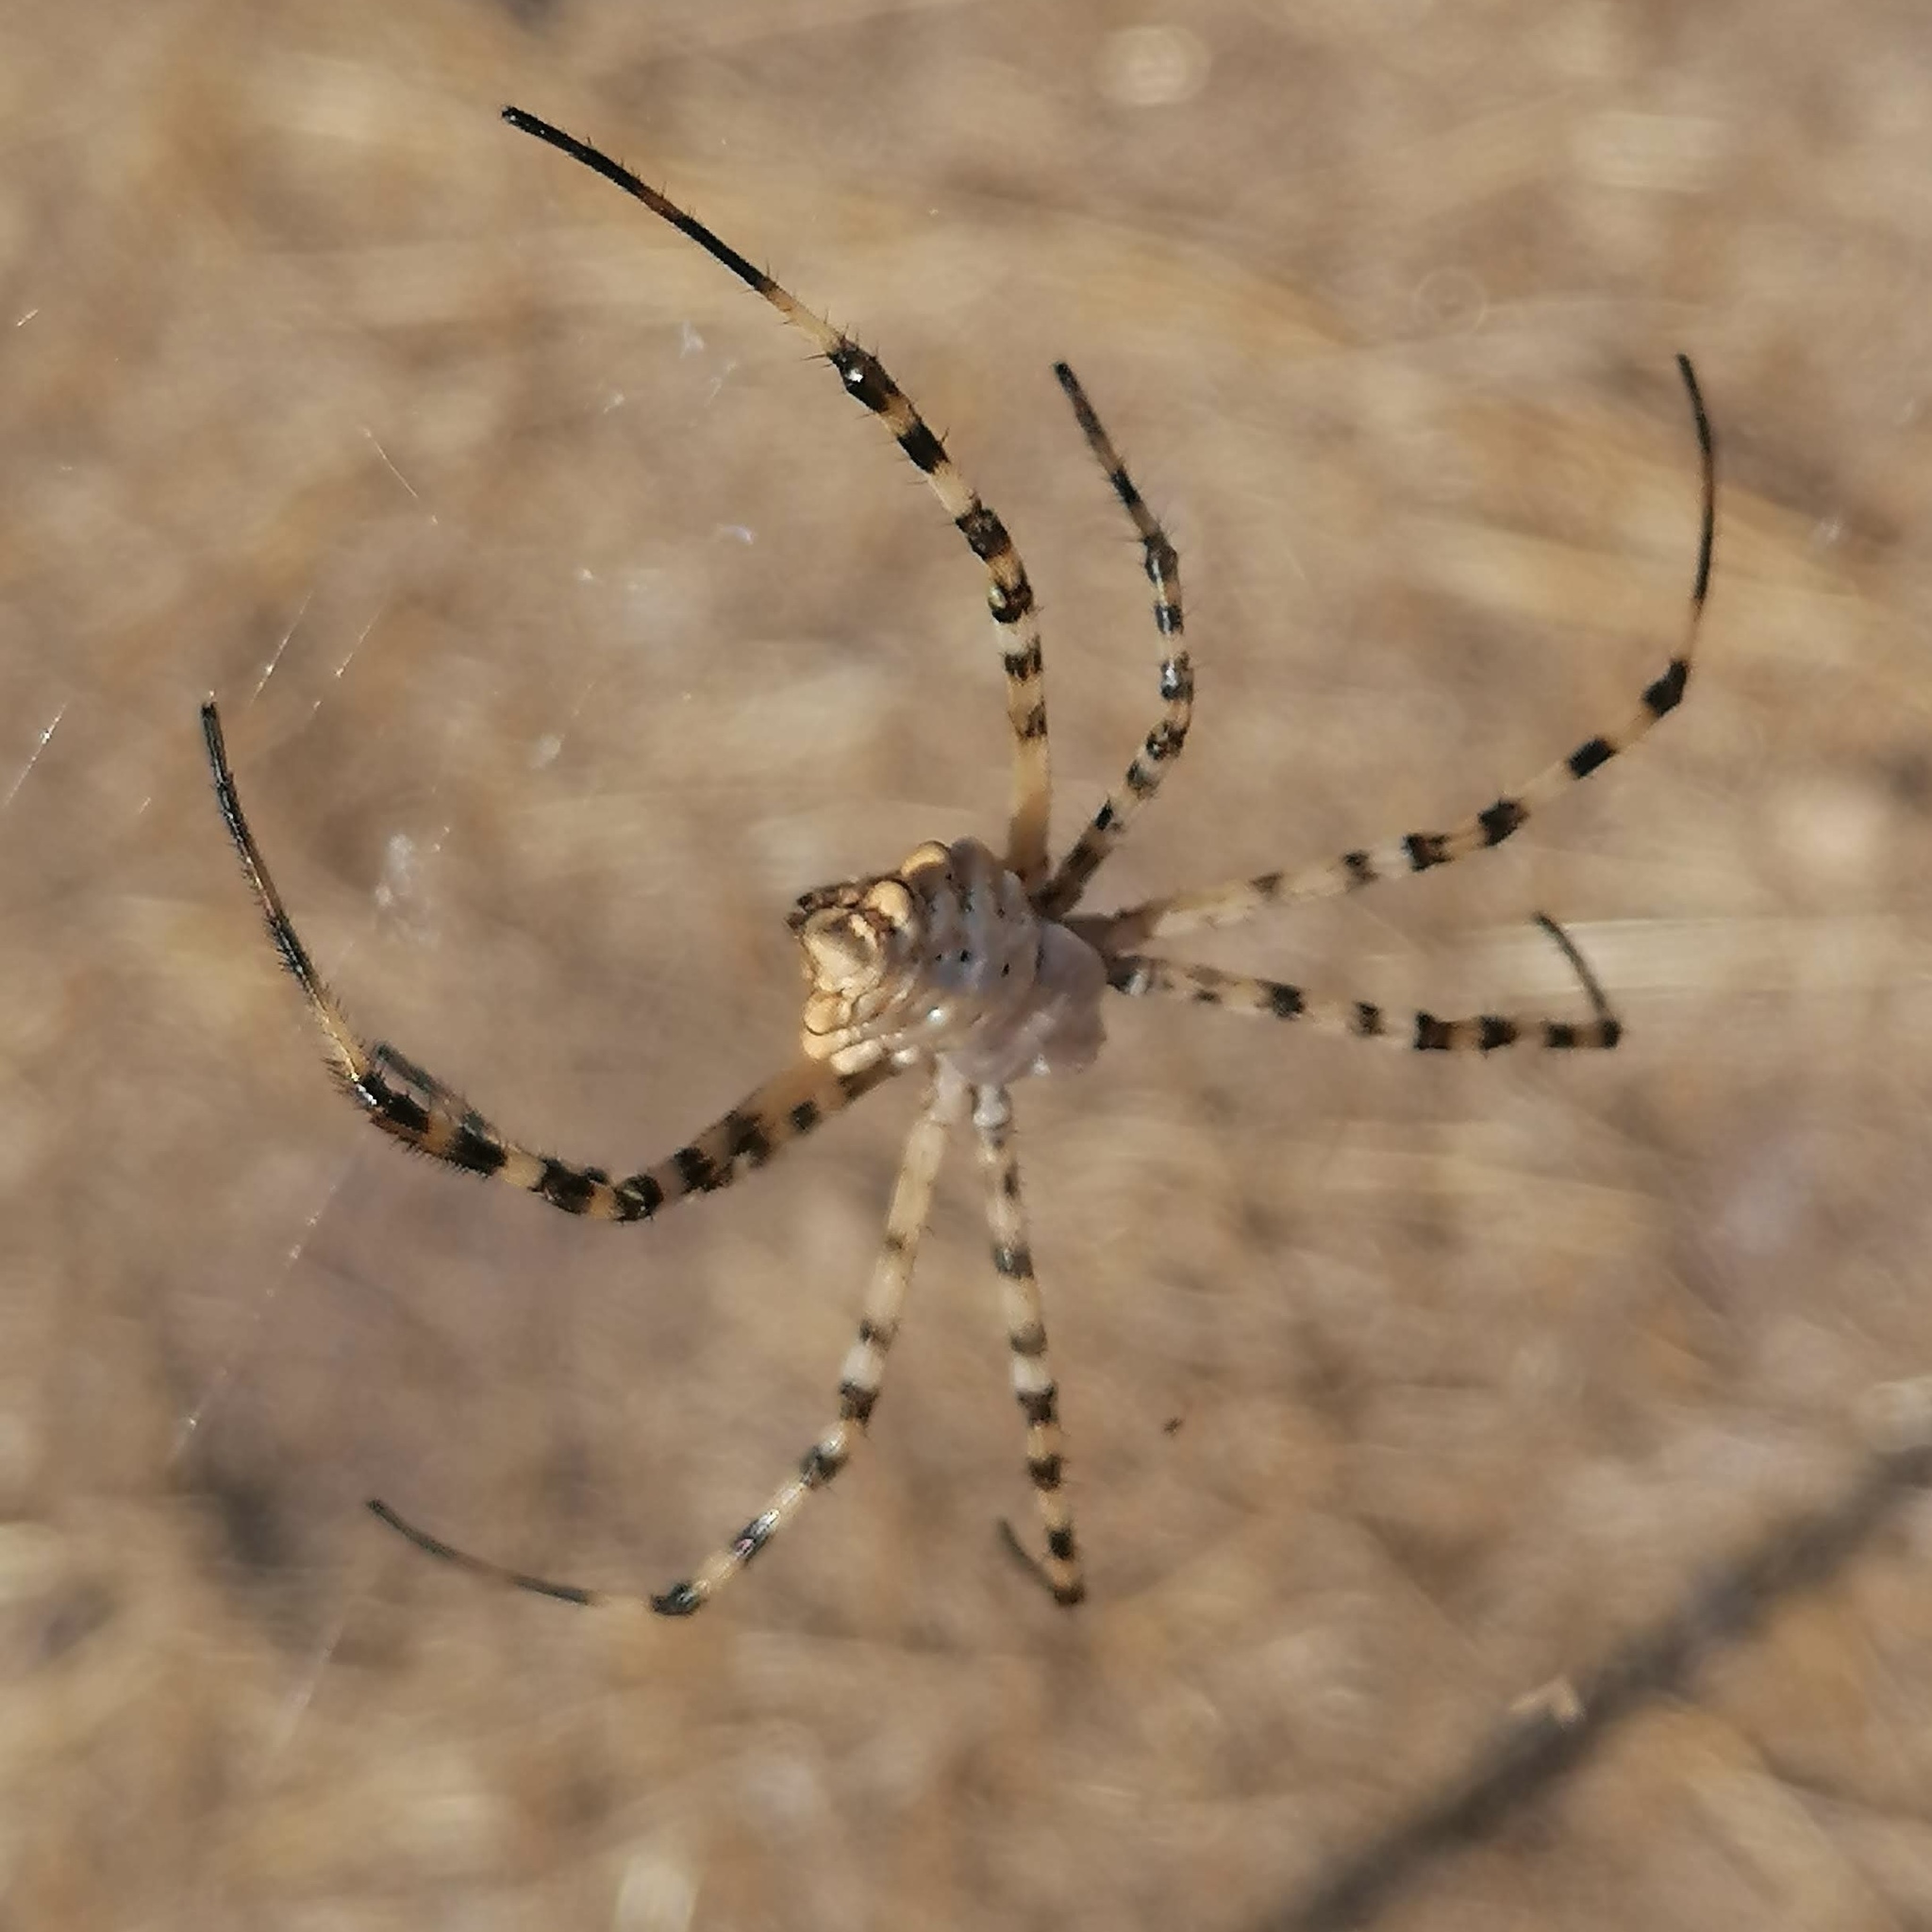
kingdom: Animalia
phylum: Arthropoda
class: Arachnida
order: Araneae
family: Araneidae
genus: Argiope
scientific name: Argiope lobata
